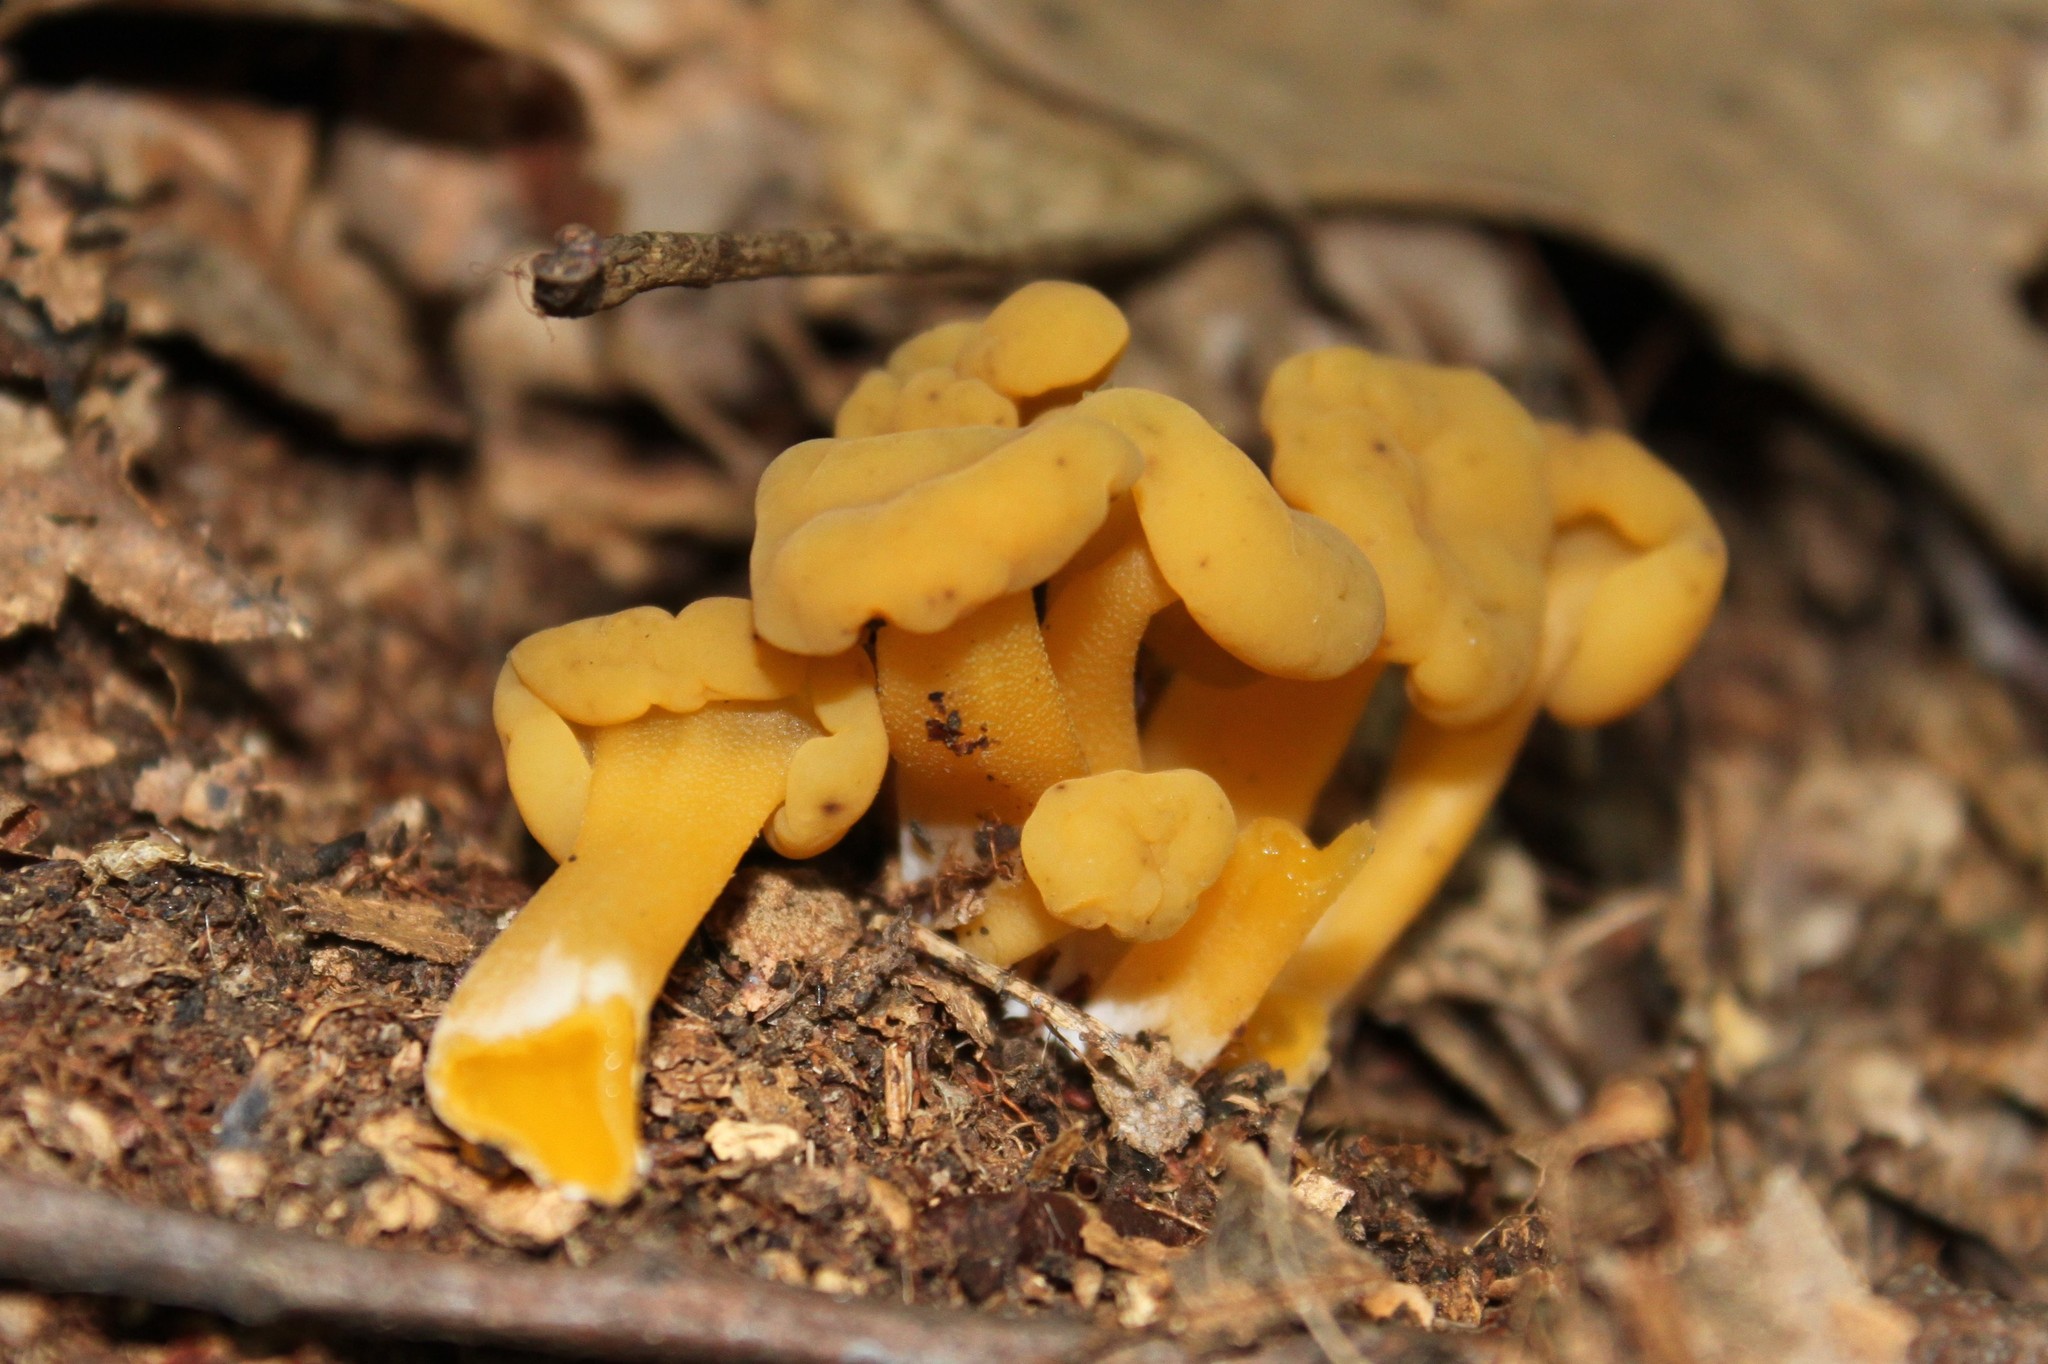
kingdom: Fungi
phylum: Ascomycota
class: Leotiomycetes
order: Leotiales
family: Leotiaceae
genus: Leotia
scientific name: Leotia lubrica
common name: Jellybaby
